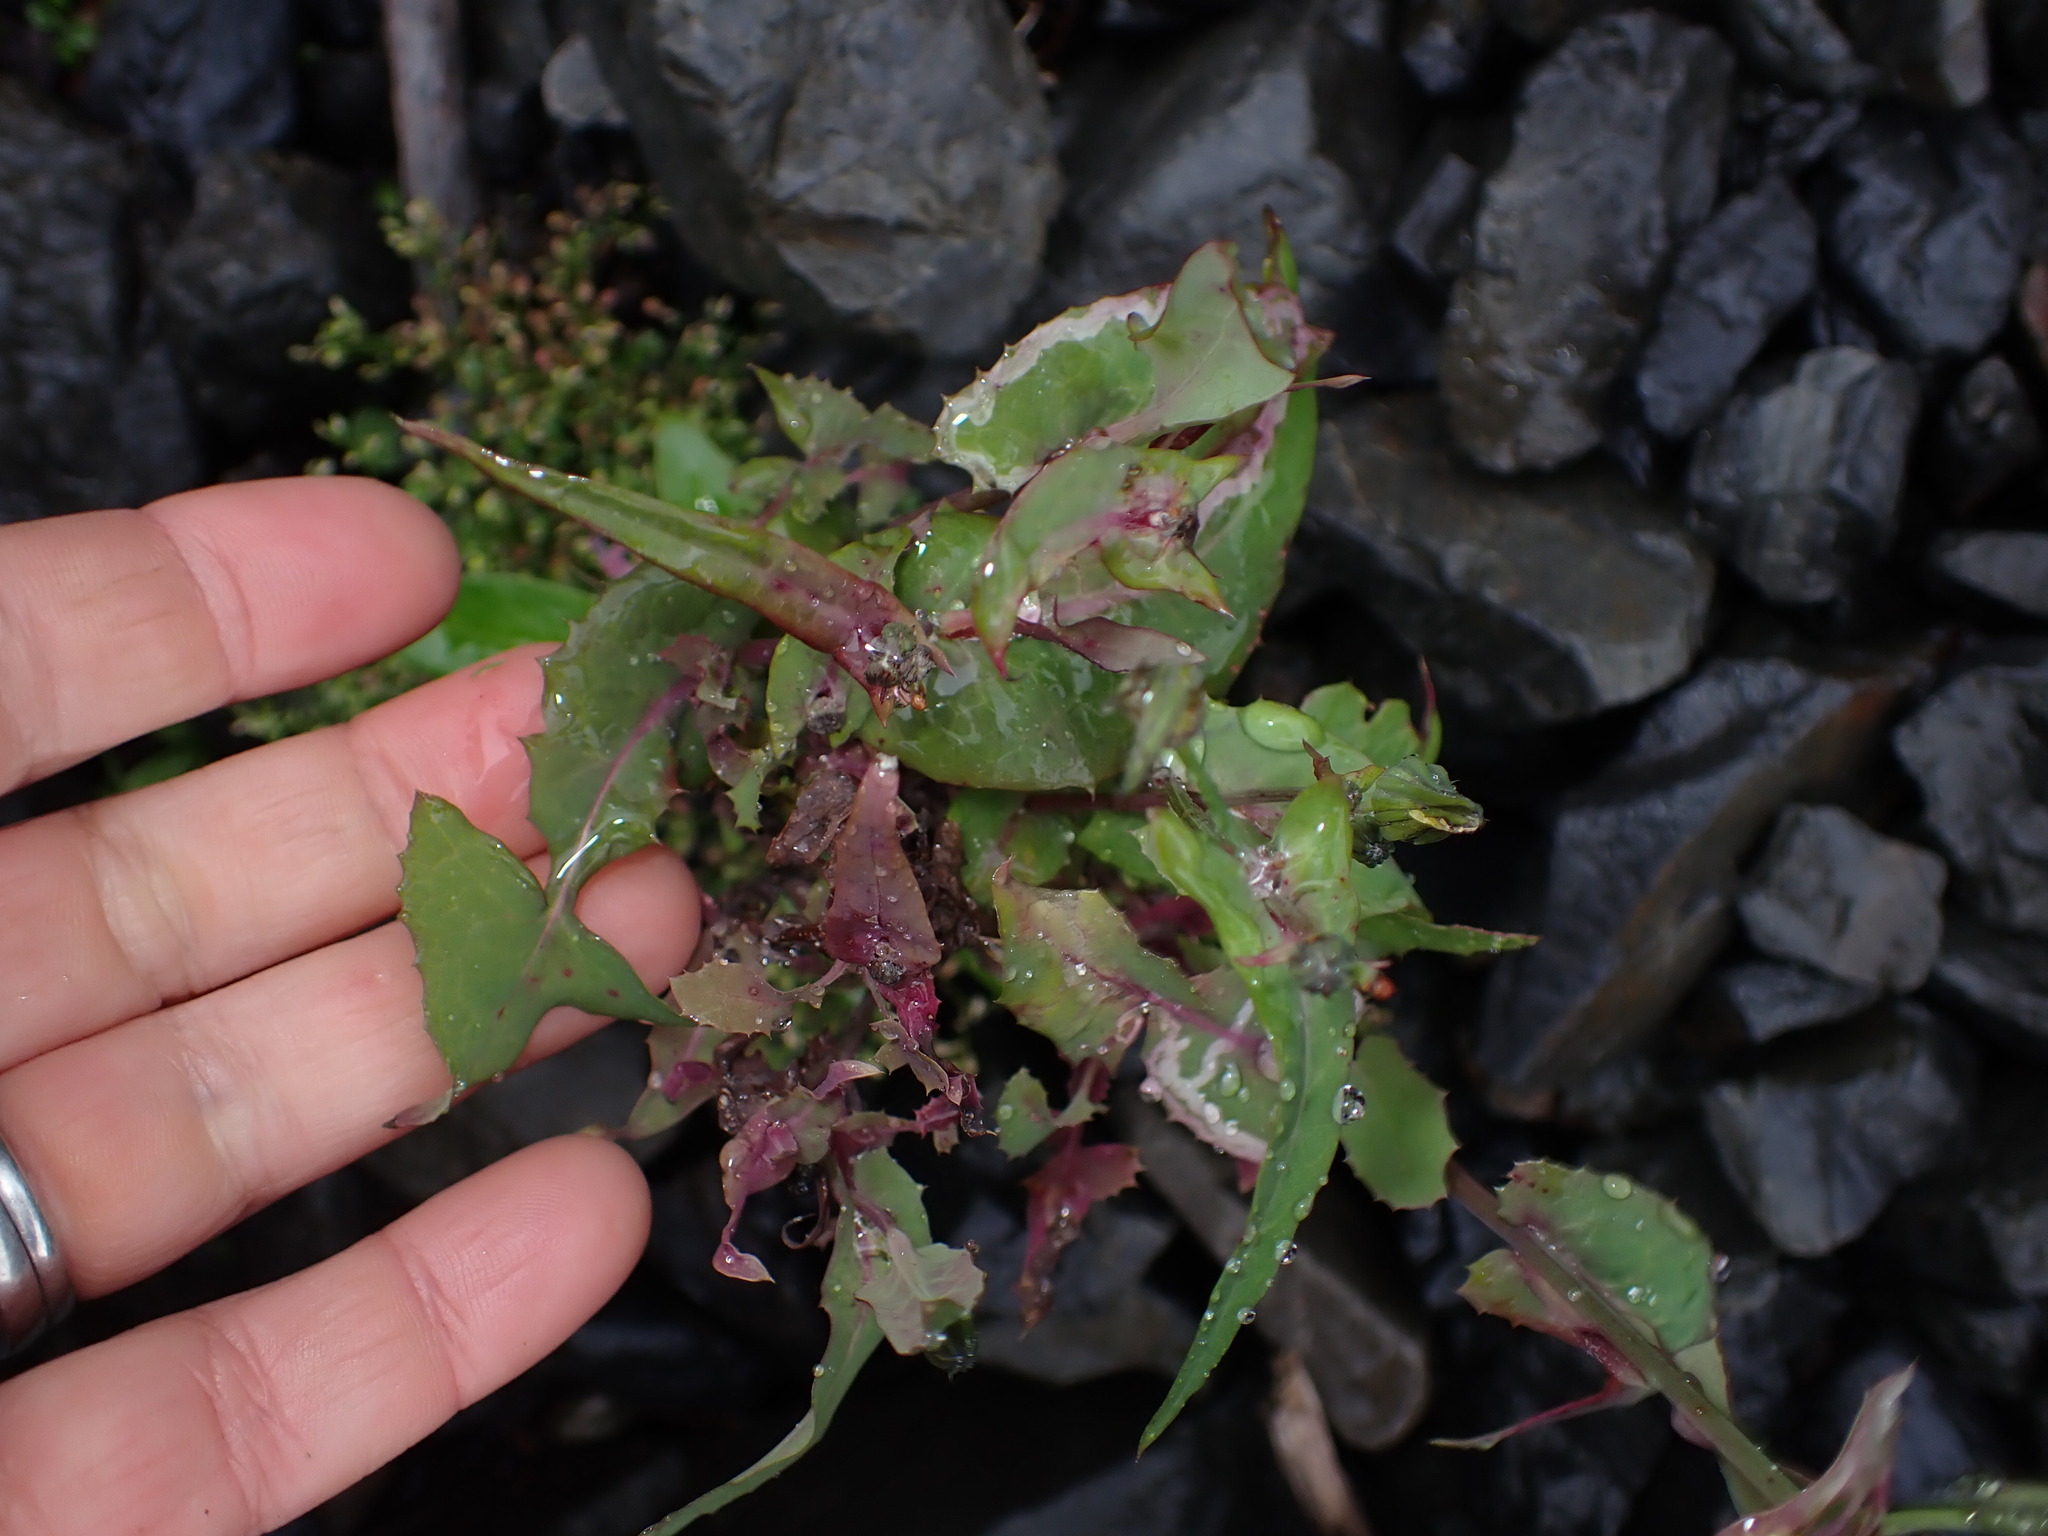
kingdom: Plantae
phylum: Tracheophyta
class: Magnoliopsida
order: Asterales
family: Asteraceae
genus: Sonchus
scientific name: Sonchus oleraceus
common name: Common sowthistle
